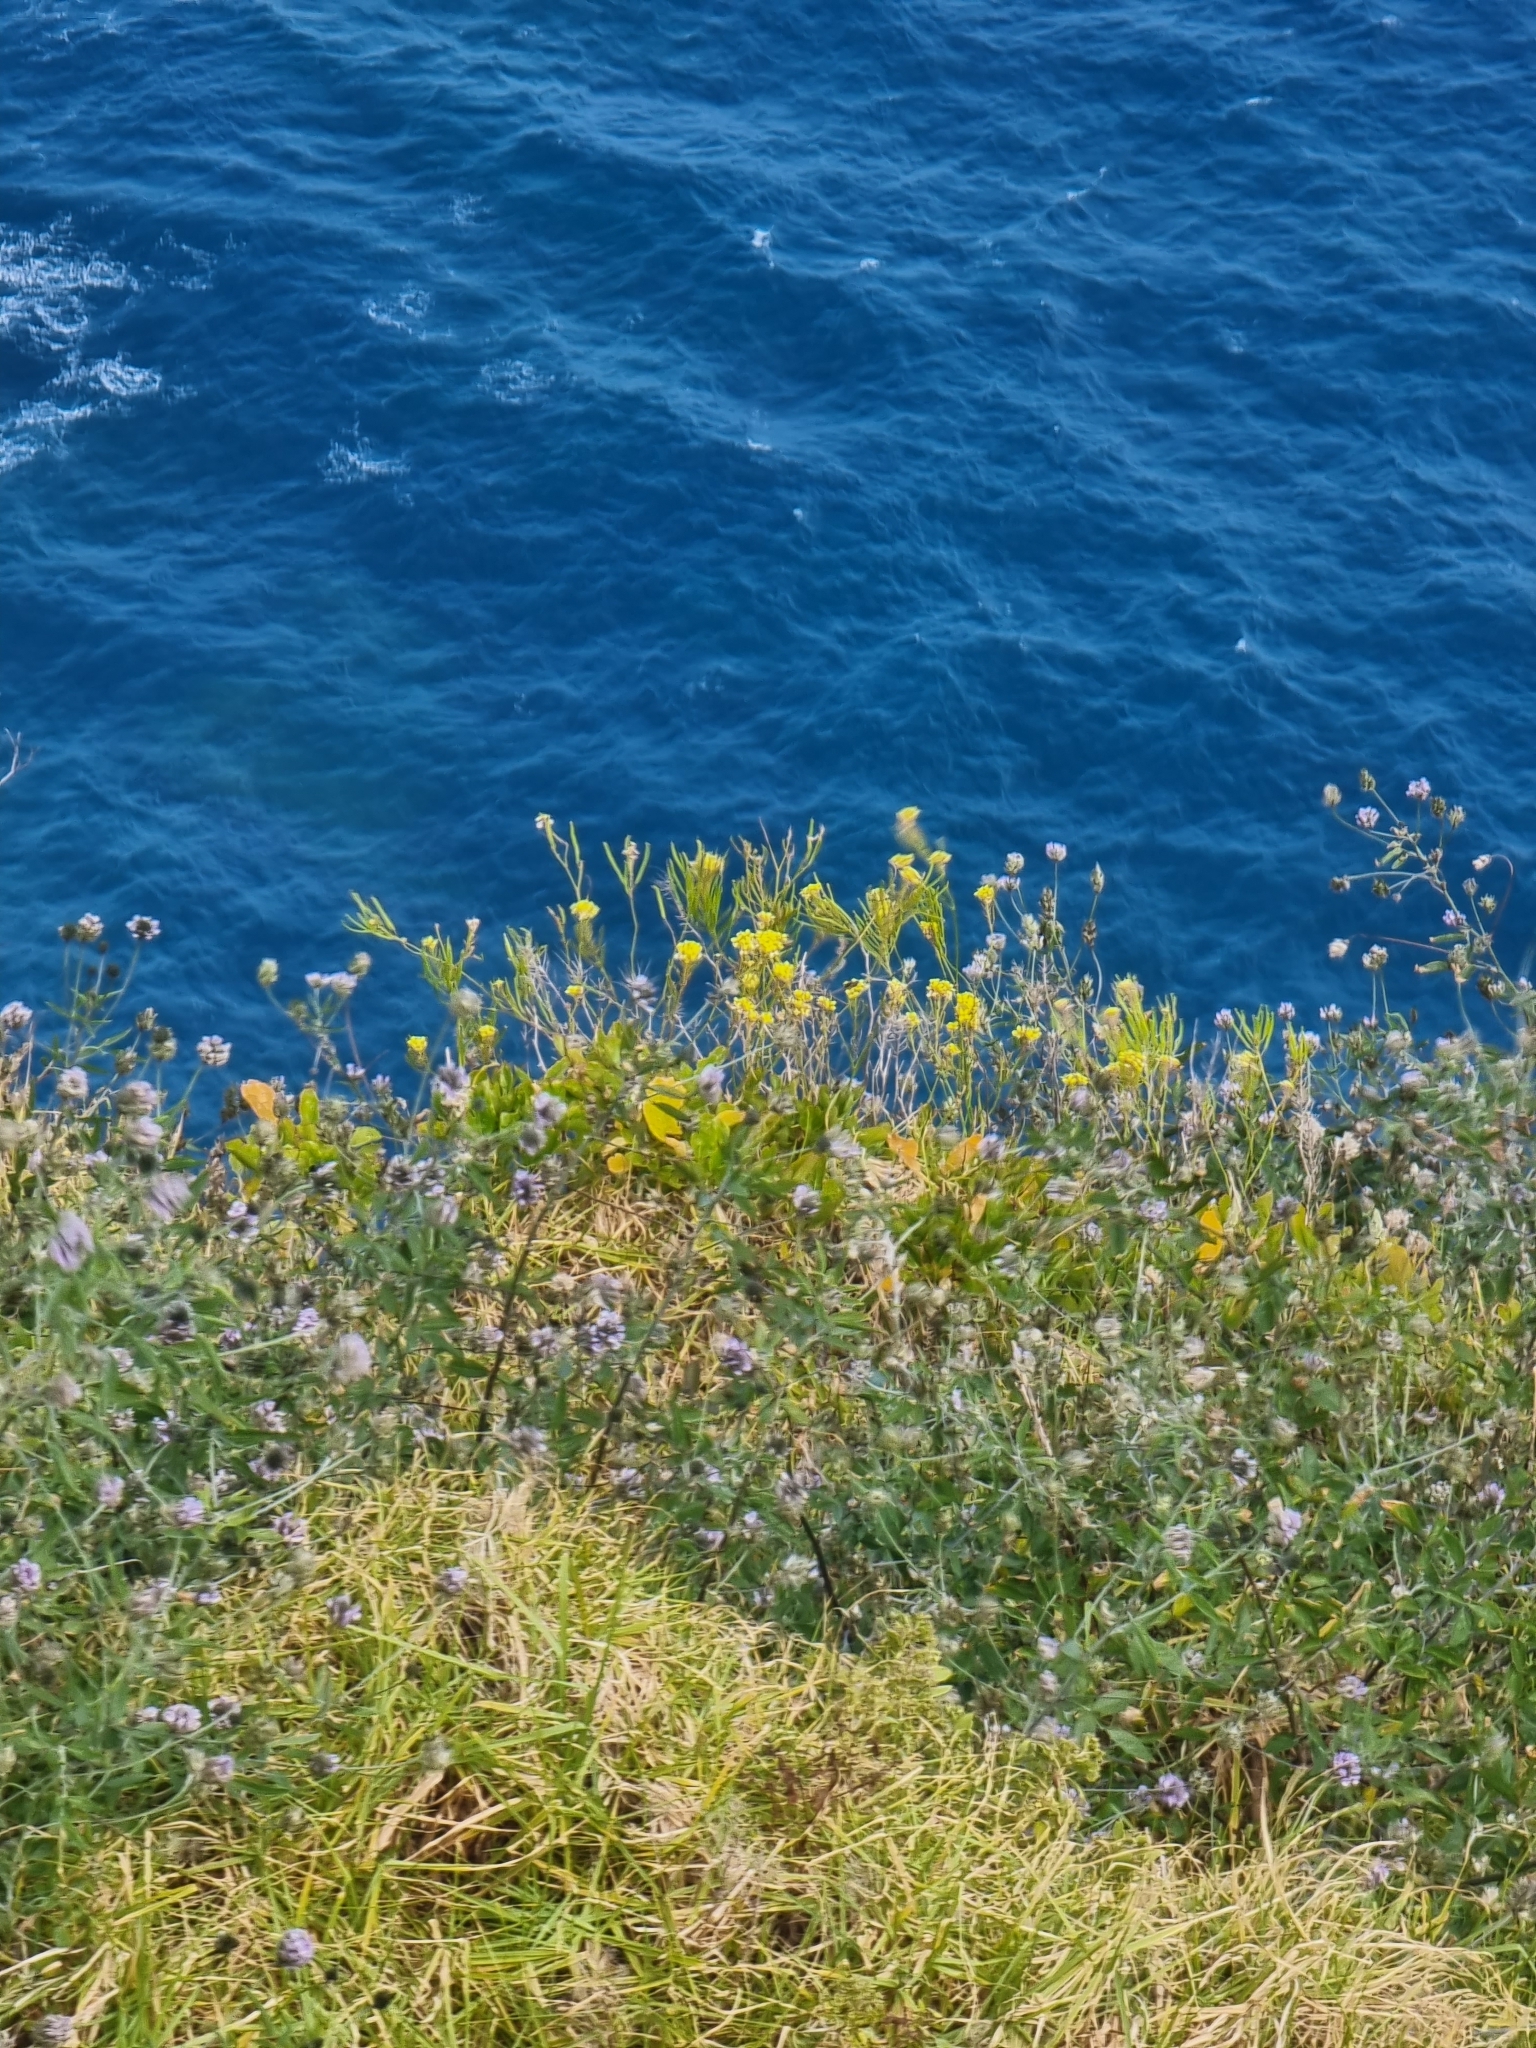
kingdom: Plantae
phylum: Tracheophyta
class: Magnoliopsida
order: Brassicales
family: Brassicaceae
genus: Sinapidendron
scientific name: Sinapidendron rupestre
